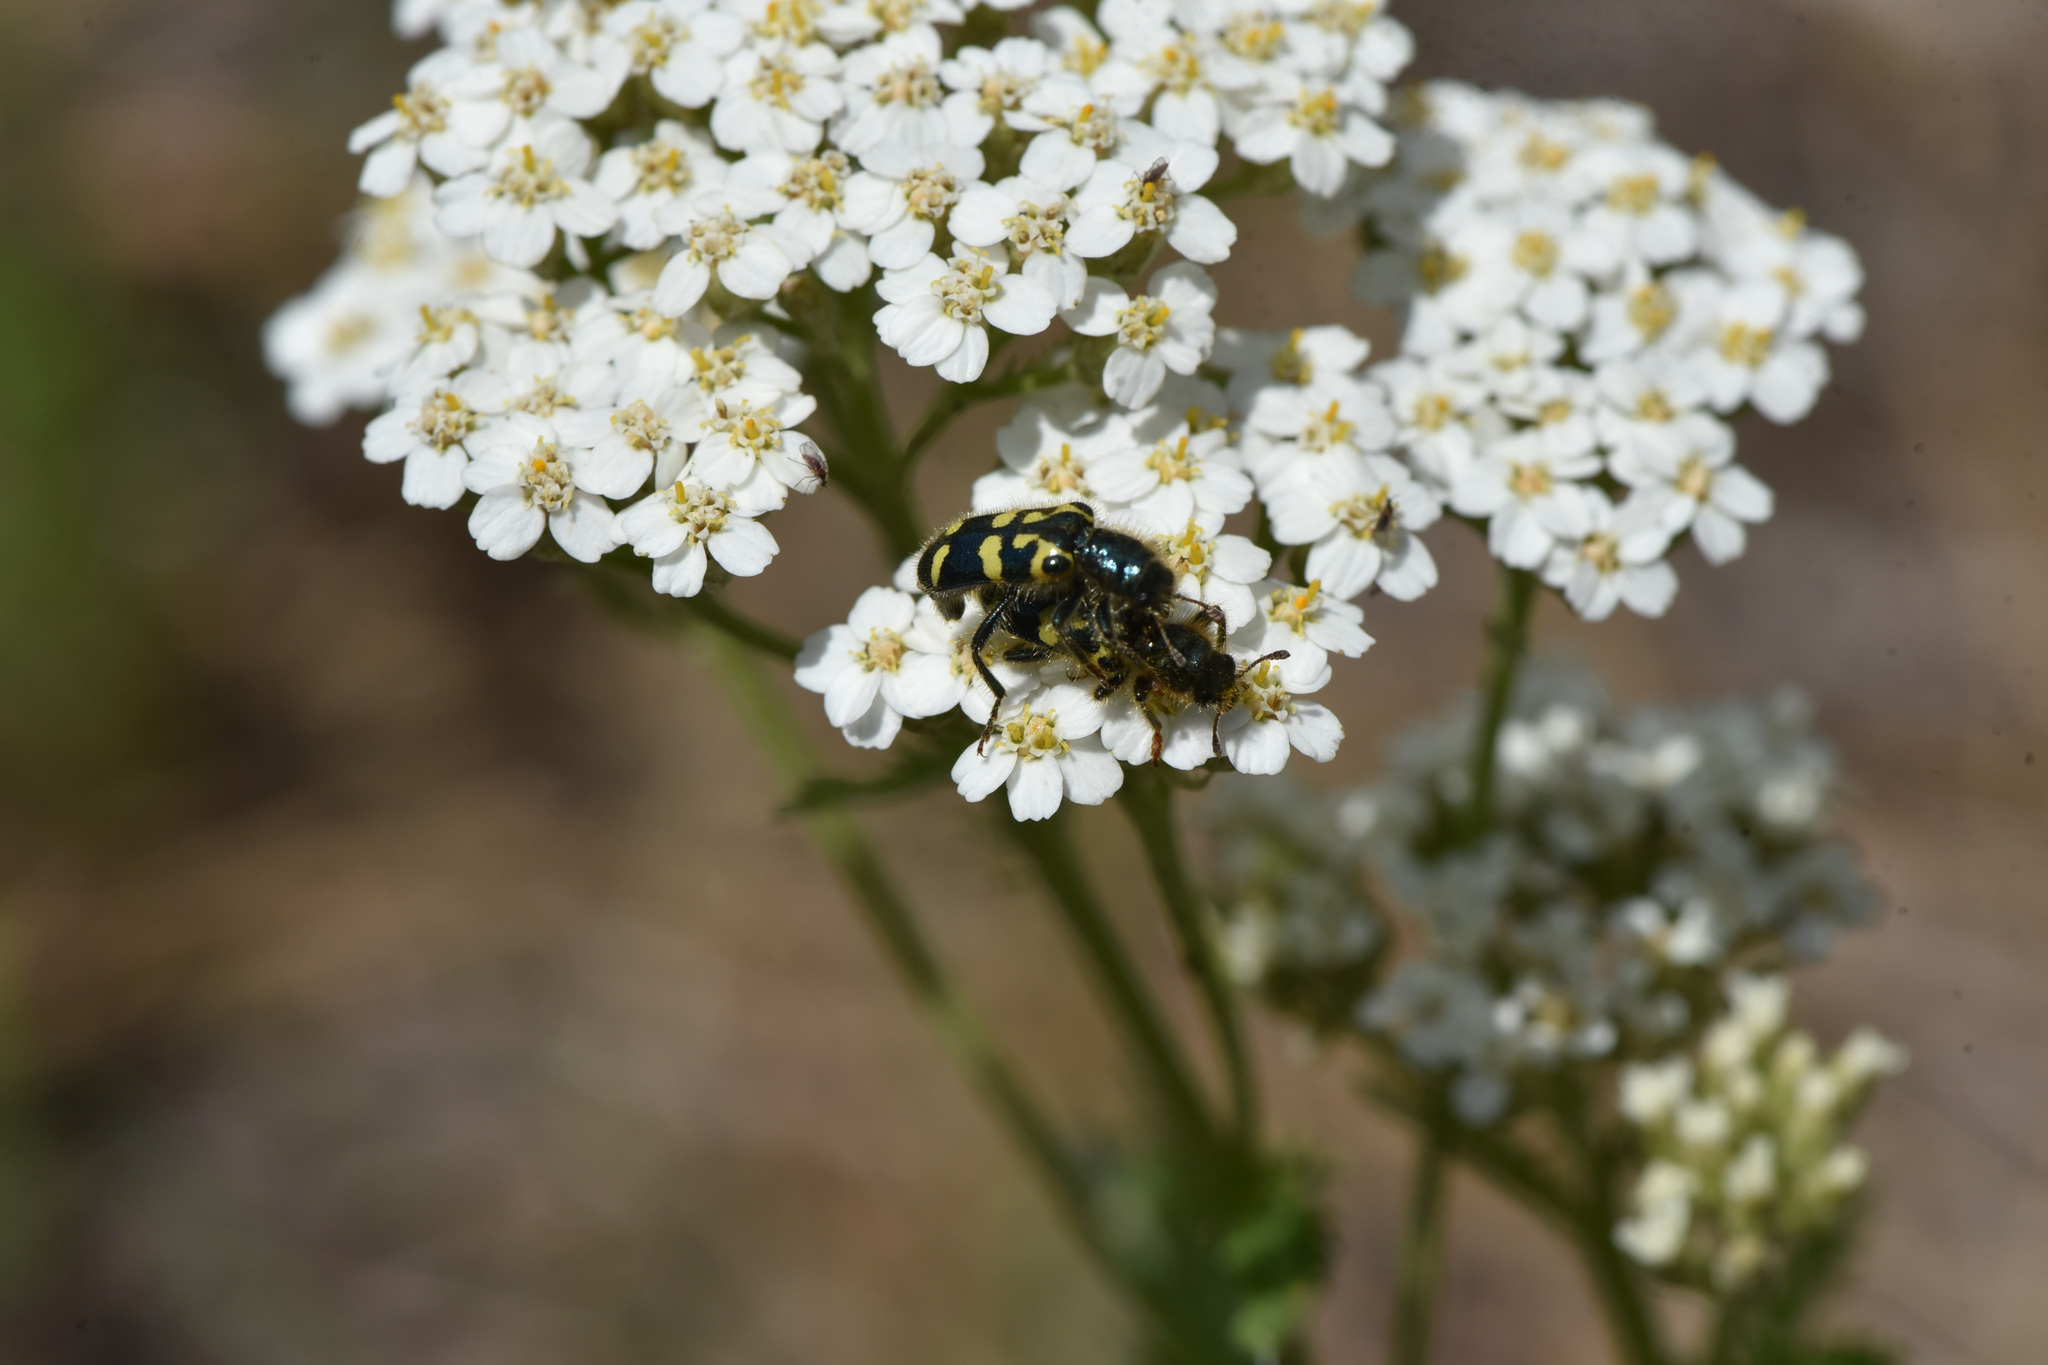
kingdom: Plantae
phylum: Tracheophyta
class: Magnoliopsida
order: Asterales
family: Asteraceae
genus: Achillea
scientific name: Achillea millefolium
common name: Yarrow
